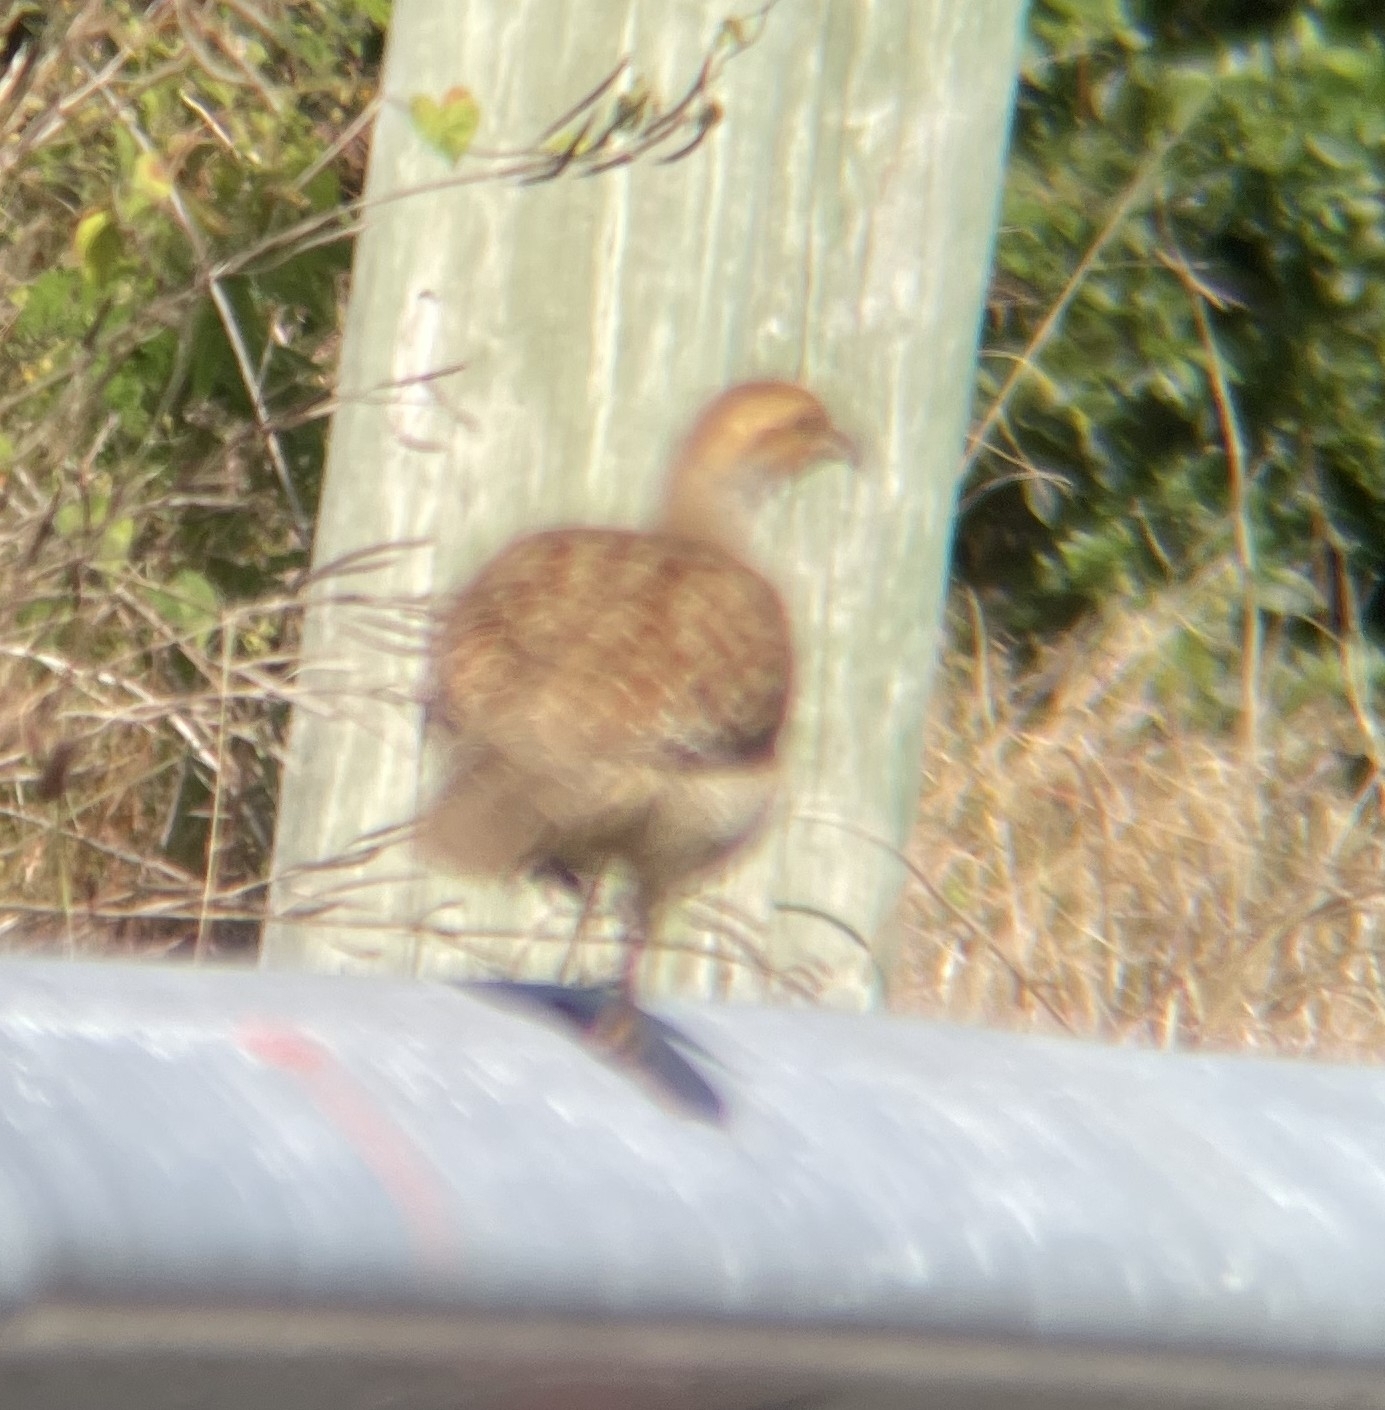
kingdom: Animalia
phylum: Chordata
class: Aves
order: Galliformes
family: Phasianidae
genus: Ortygornis
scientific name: Ortygornis pondicerianus
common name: Grey francolin
